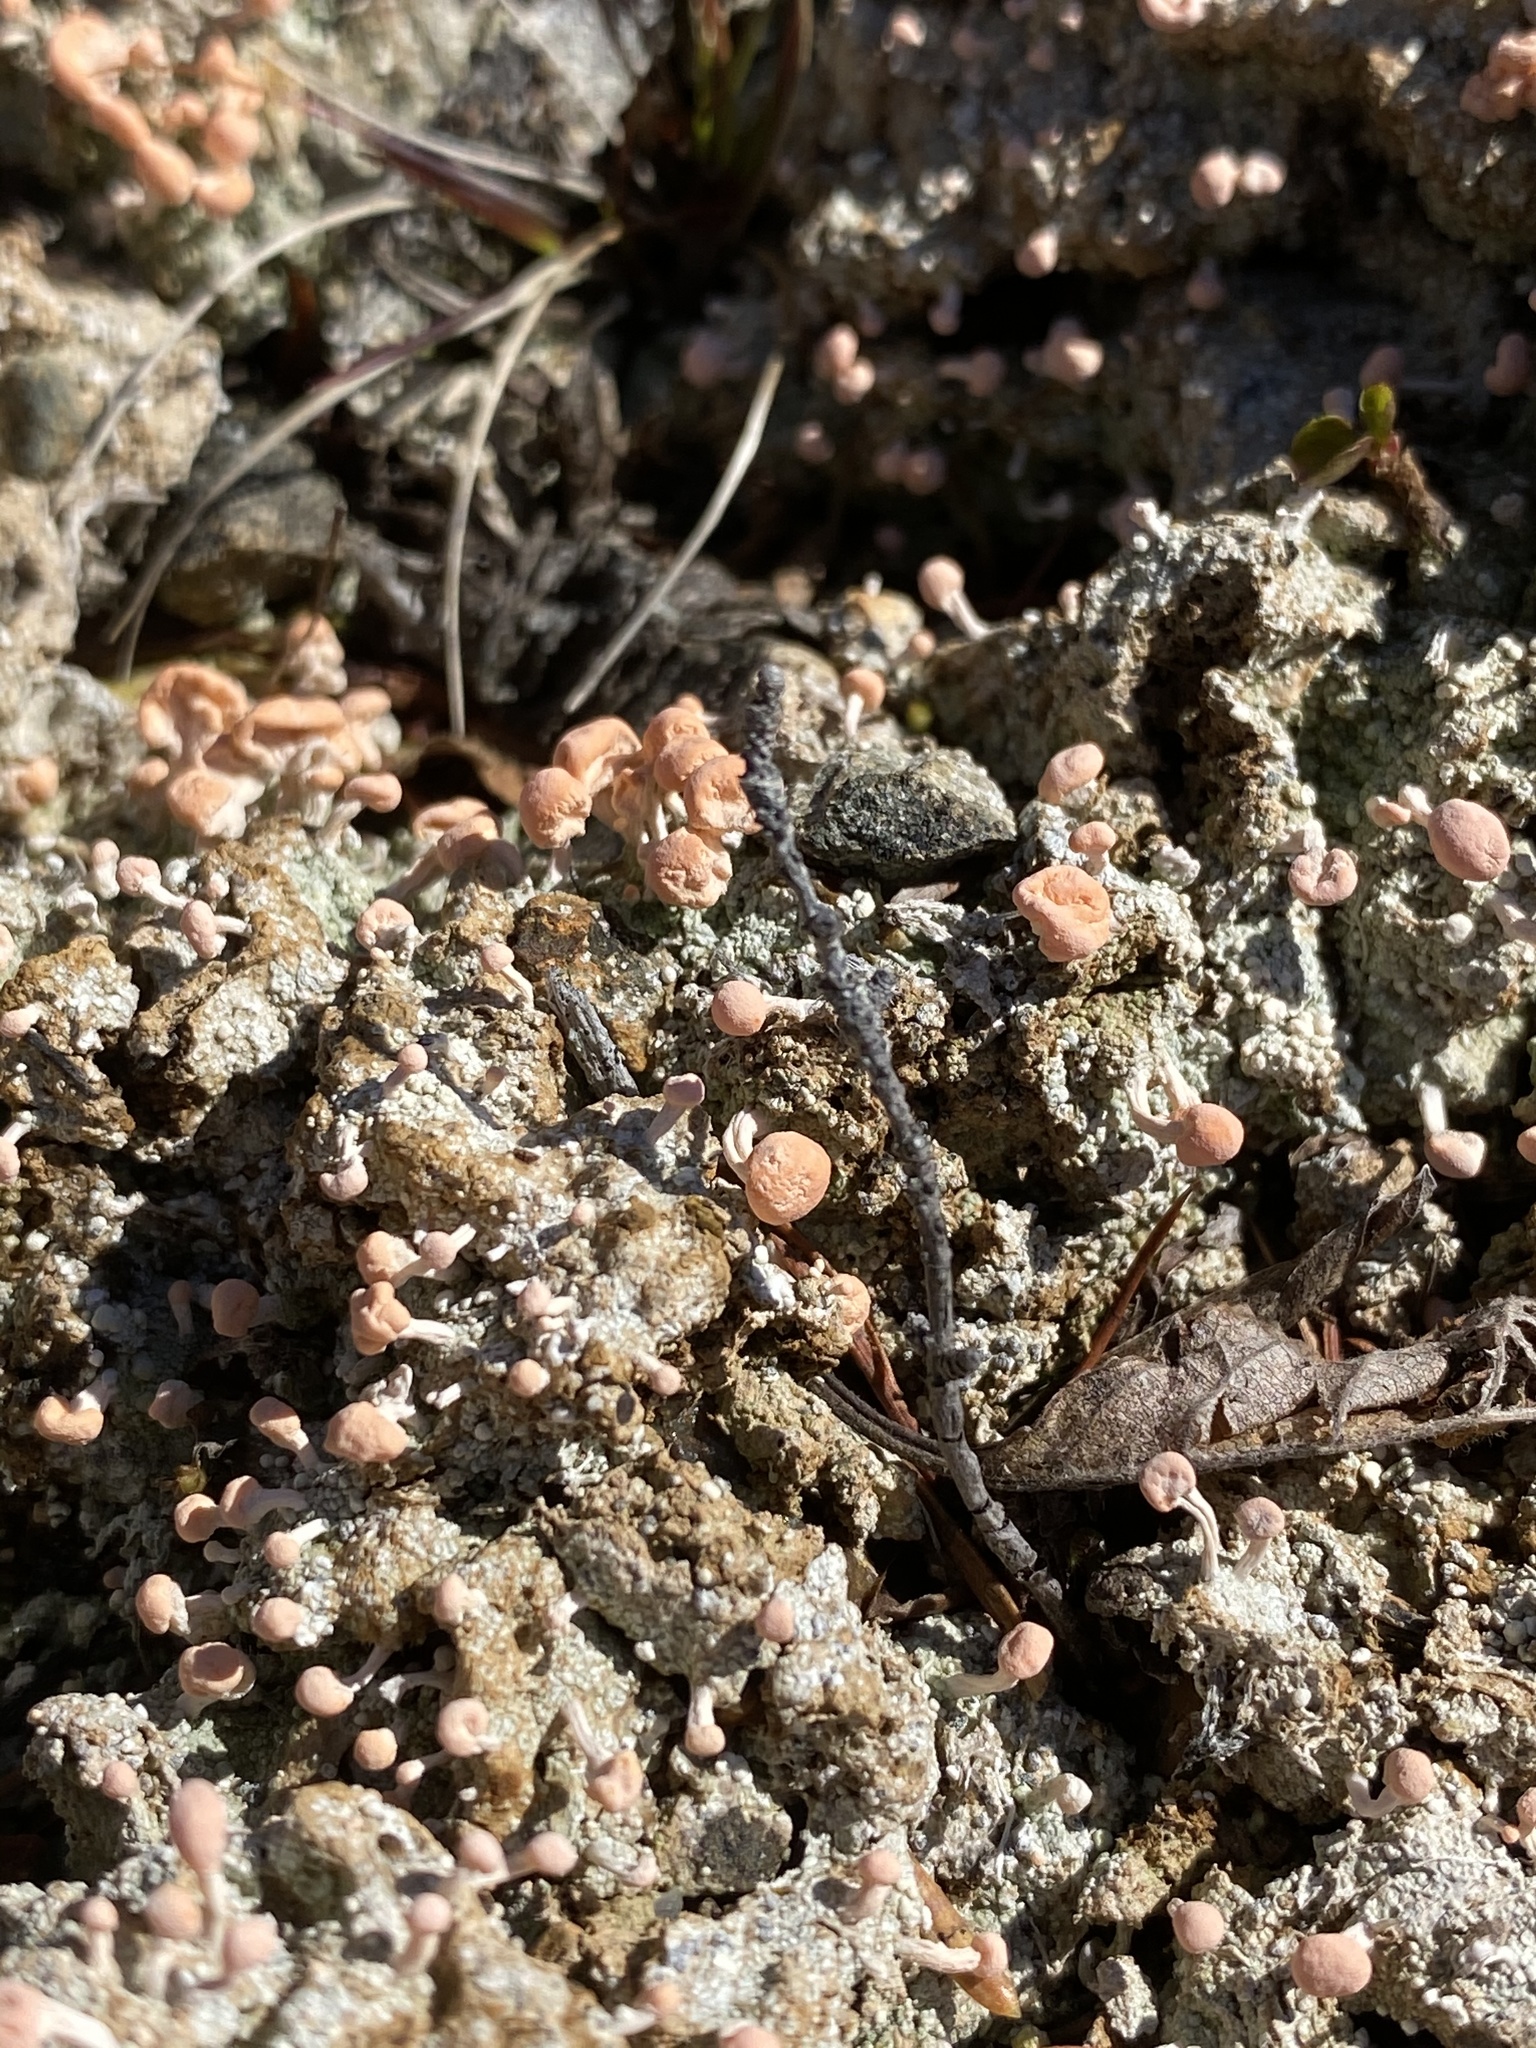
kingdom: Fungi
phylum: Ascomycota
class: Lecanoromycetes
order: Pertusariales
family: Icmadophilaceae
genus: Dibaeis
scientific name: Dibaeis baeomyces
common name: Pink earth lichen
